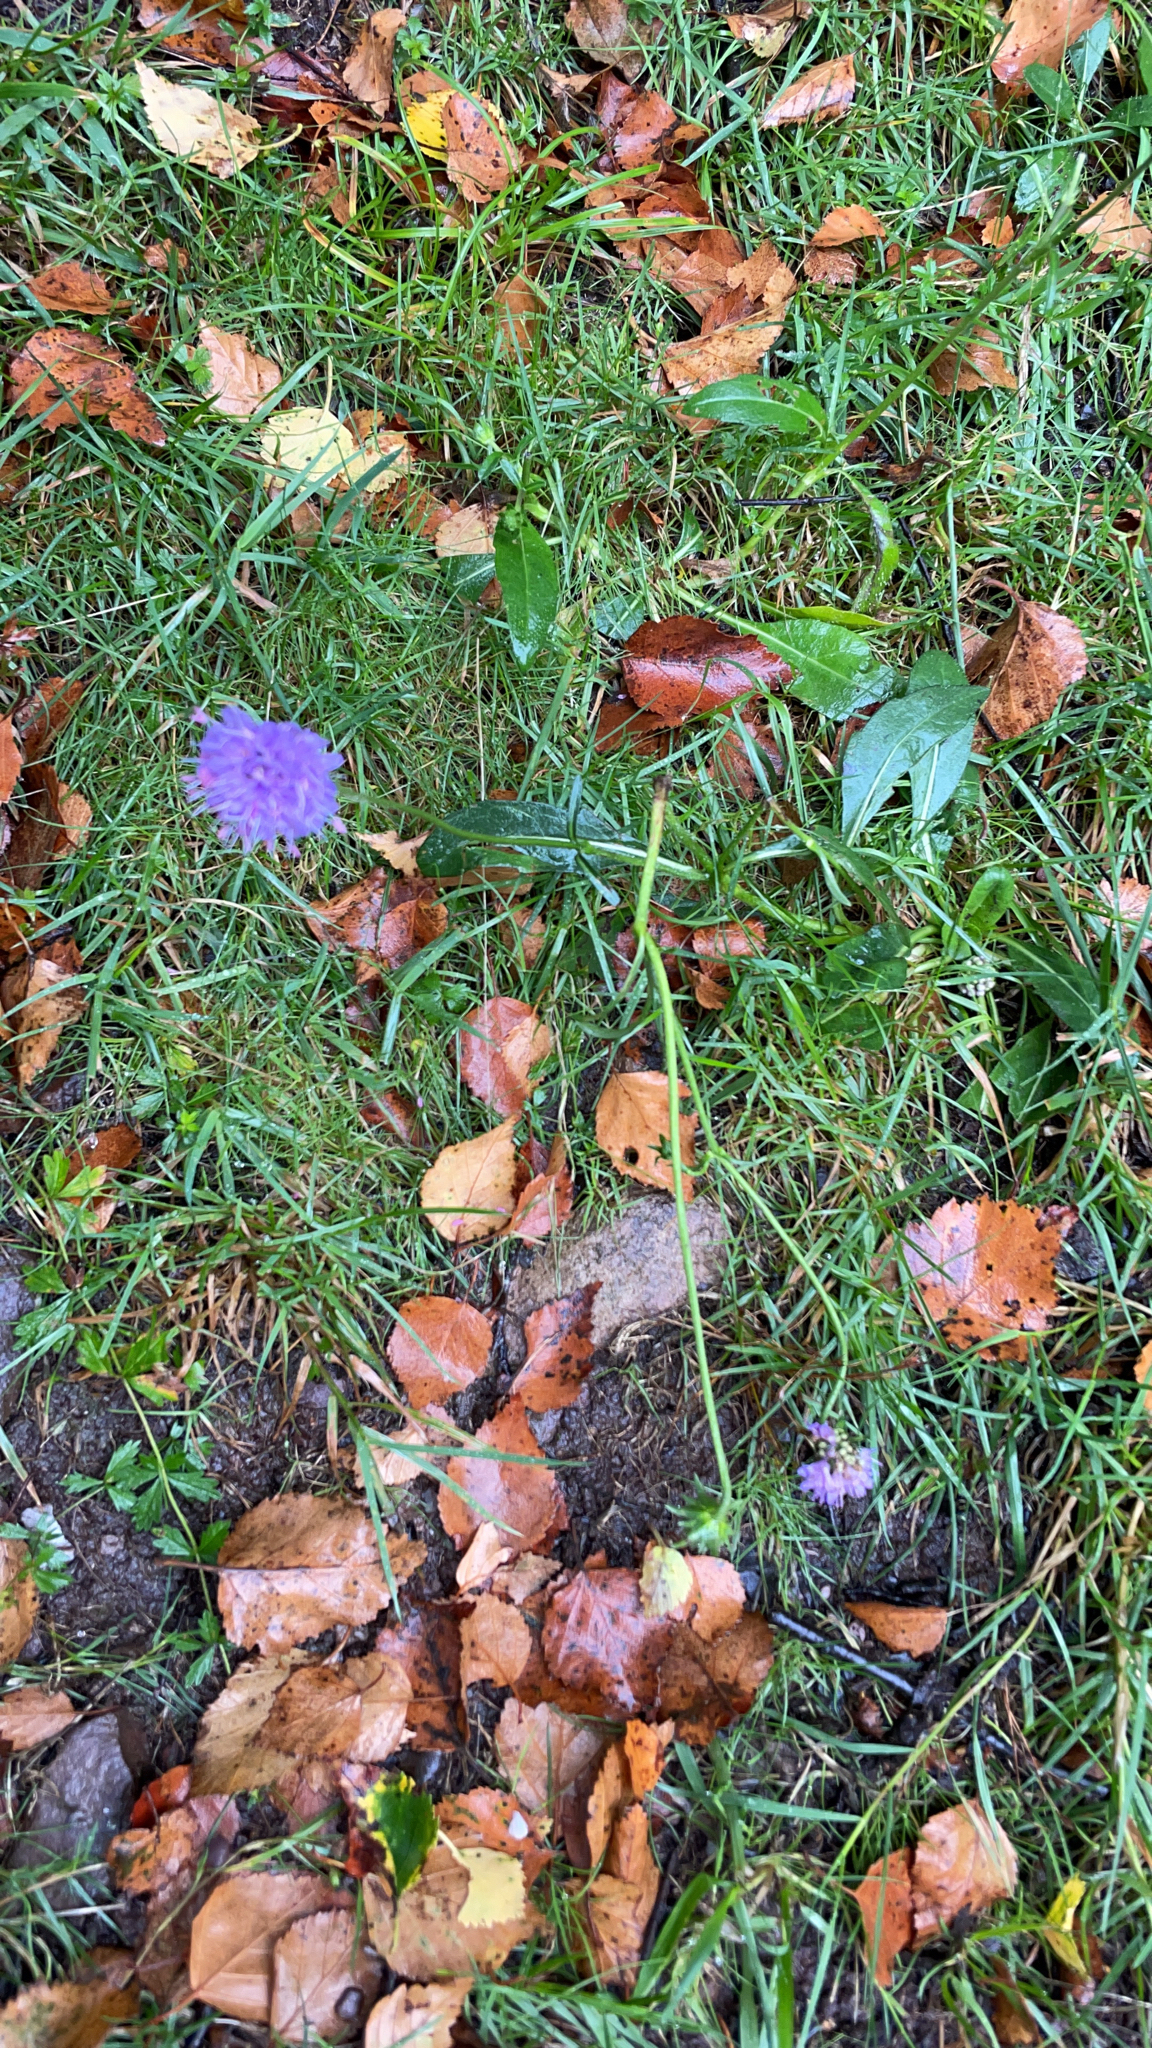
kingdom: Plantae
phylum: Tracheophyta
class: Magnoliopsida
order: Dipsacales
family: Caprifoliaceae
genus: Succisa
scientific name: Succisa pratensis
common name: Devil's-bit
